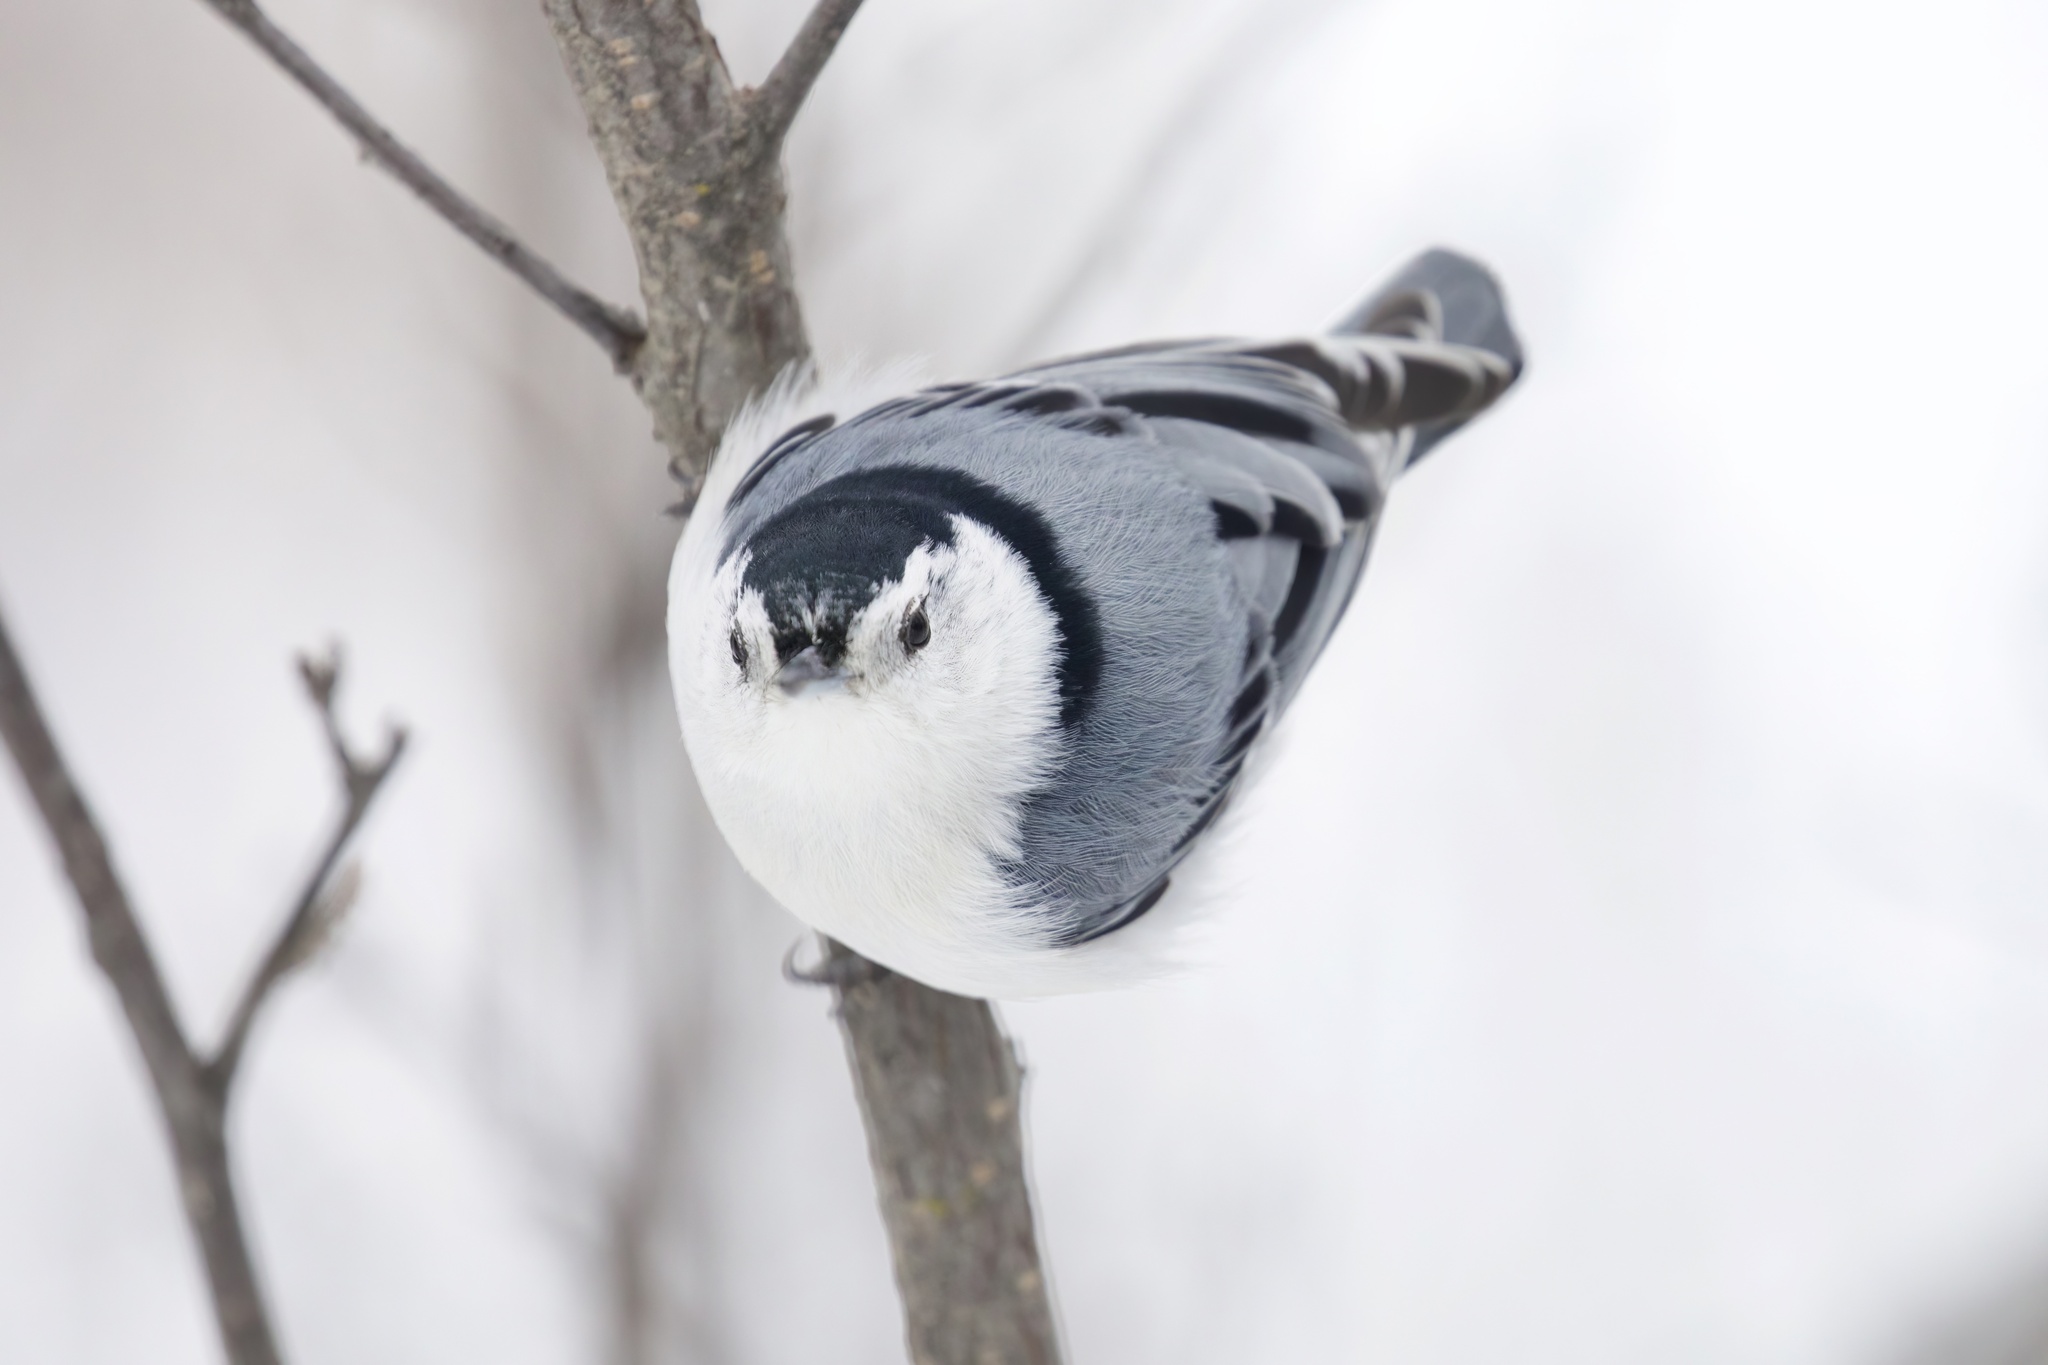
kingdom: Animalia
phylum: Chordata
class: Aves
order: Passeriformes
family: Sittidae
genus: Sitta
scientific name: Sitta carolinensis
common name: White-breasted nuthatch
